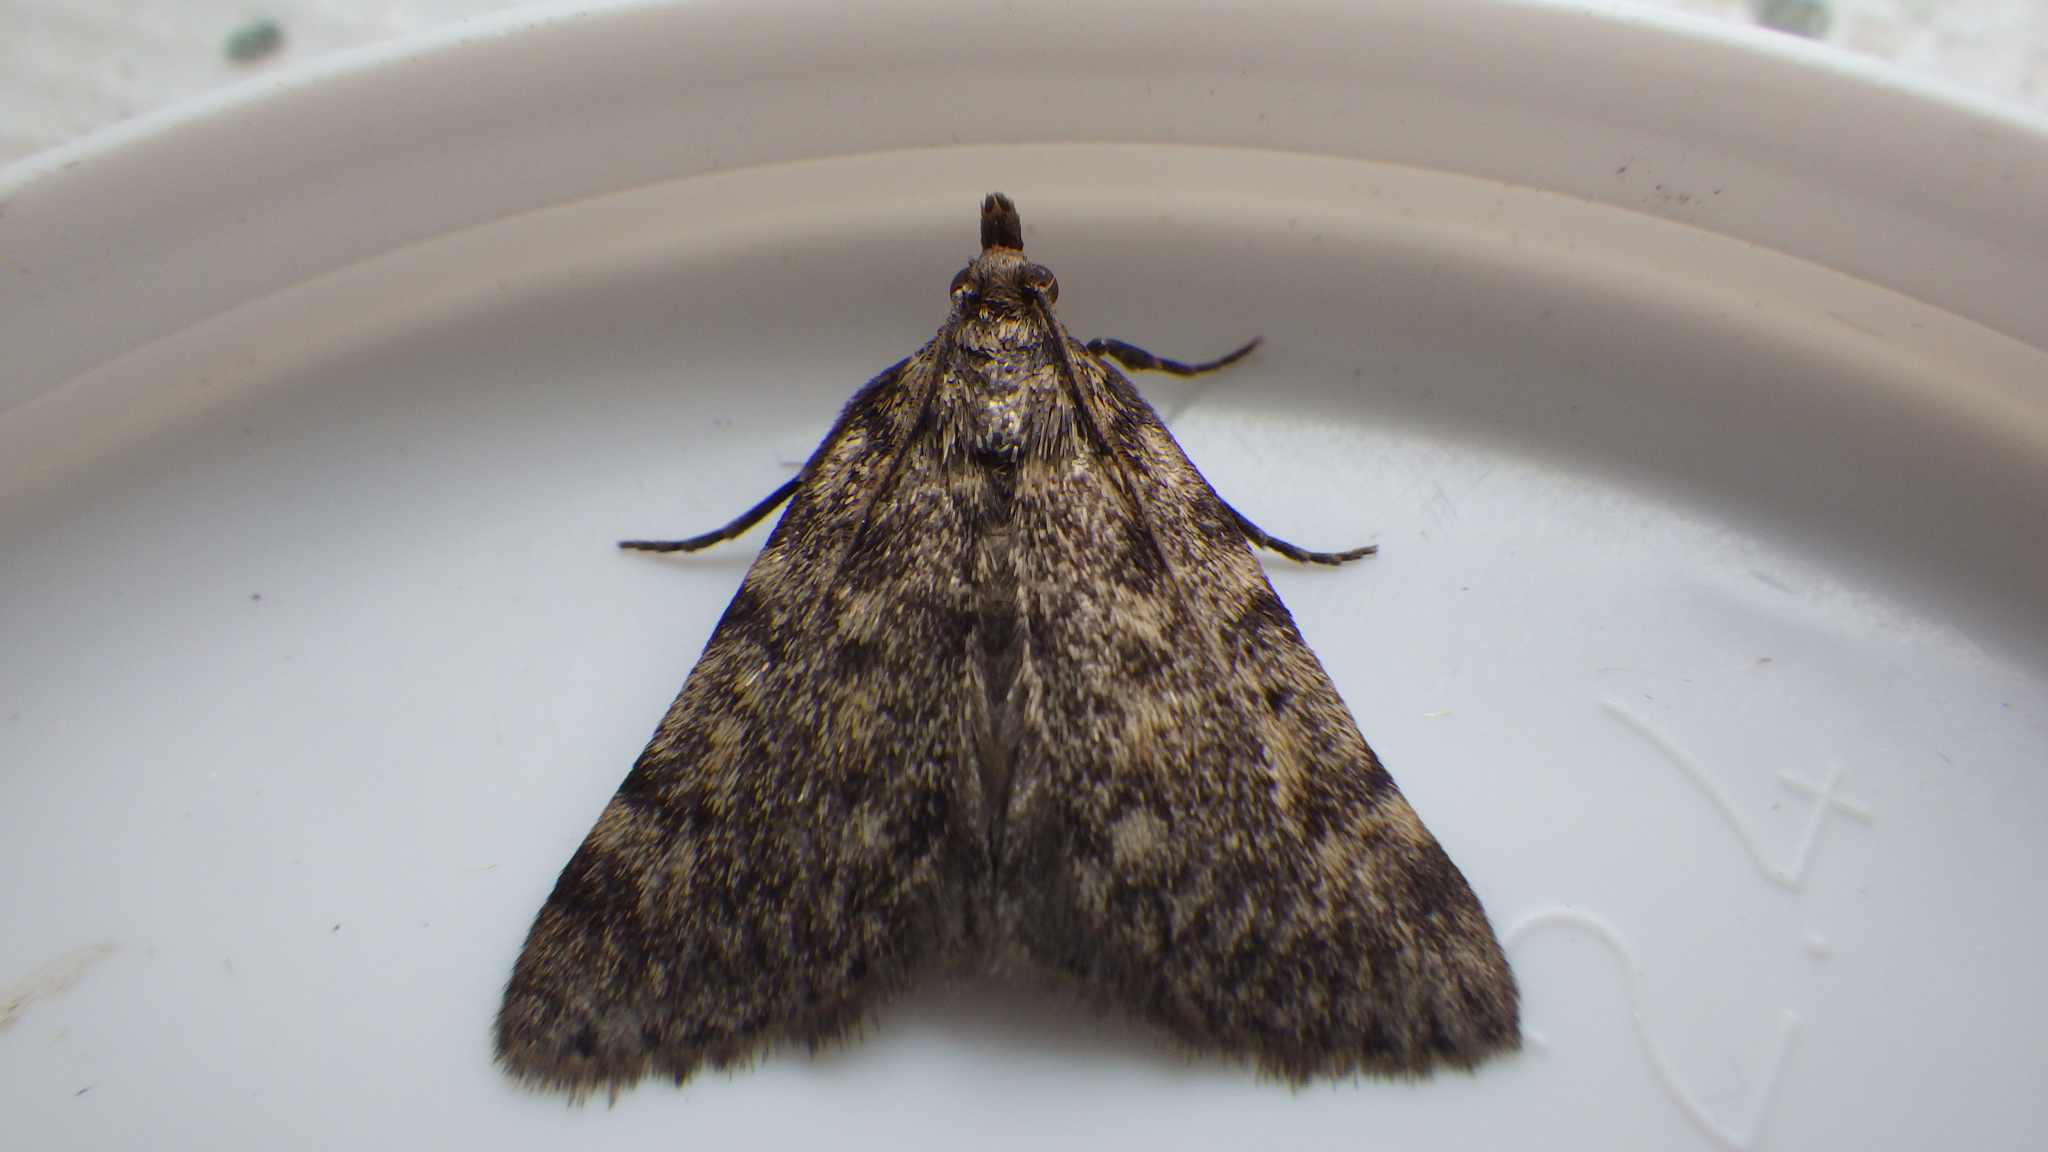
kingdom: Animalia
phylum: Arthropoda
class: Insecta
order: Lepidoptera
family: Pyralidae
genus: Aglossa
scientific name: Aglossa pinguinalis
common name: Large tabby
